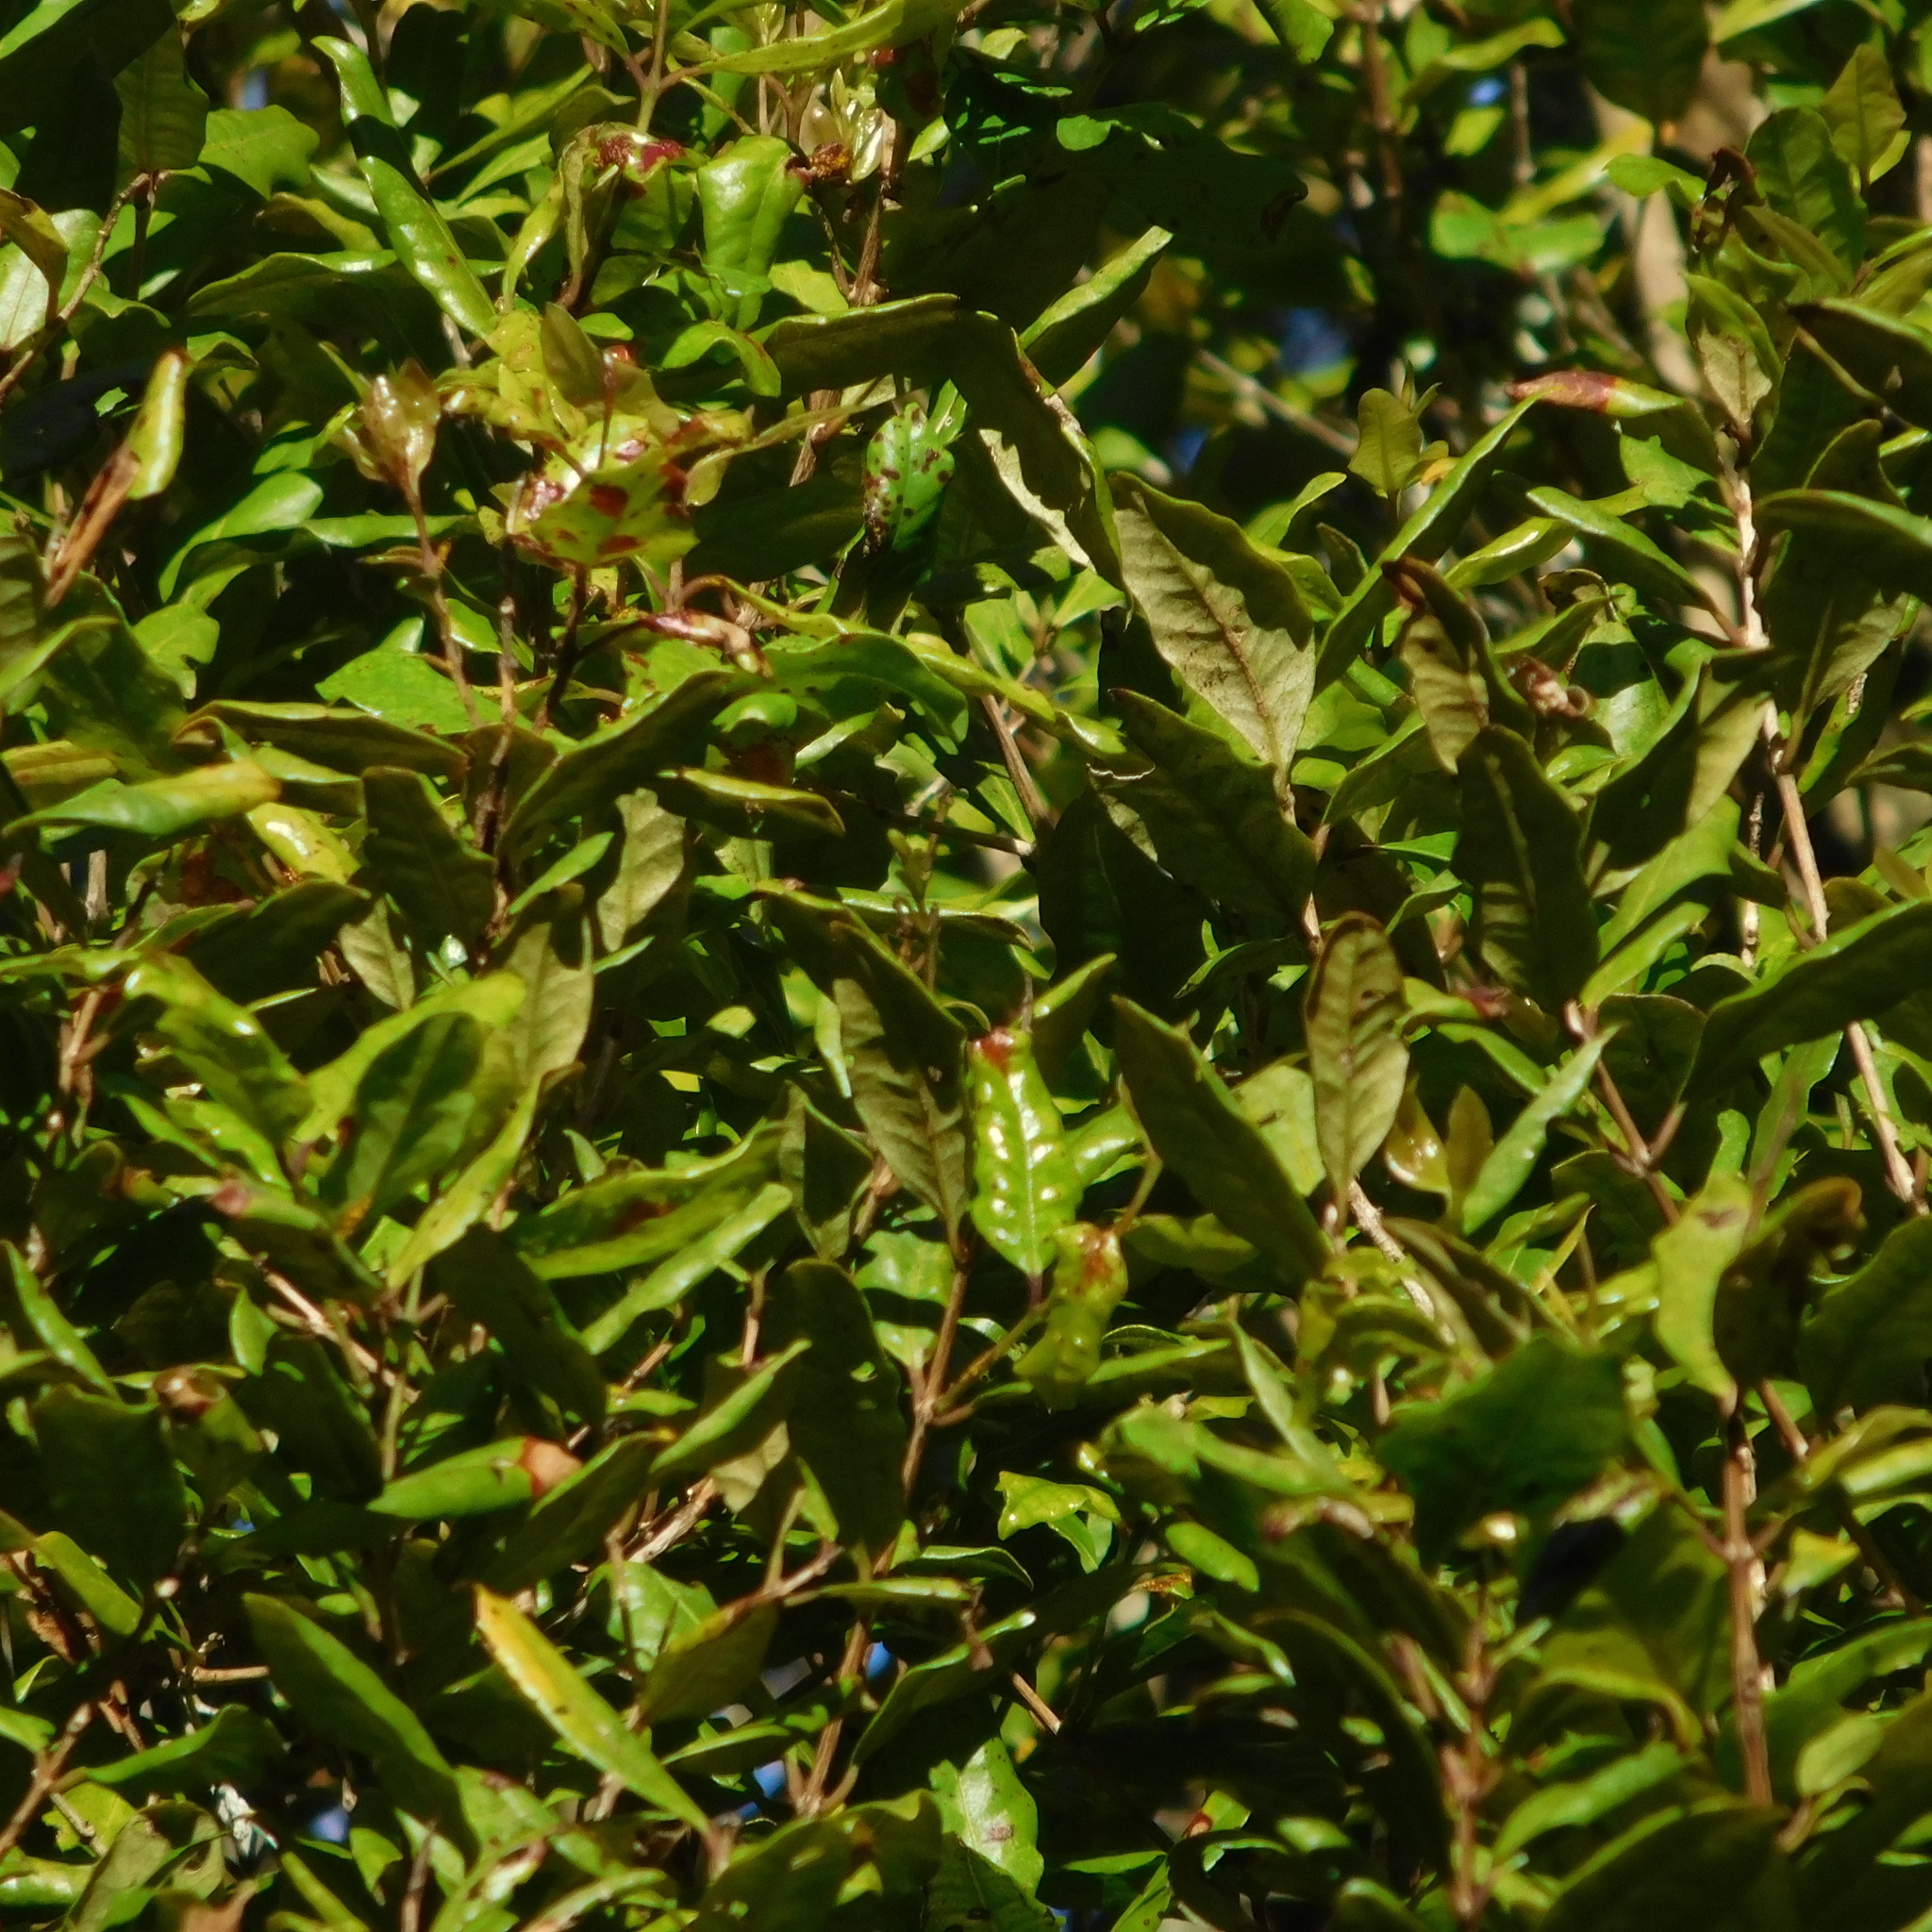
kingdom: Plantae
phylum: Tracheophyta
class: Magnoliopsida
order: Myrtales
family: Myrtaceae
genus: Syzygium
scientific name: Syzygium maire
